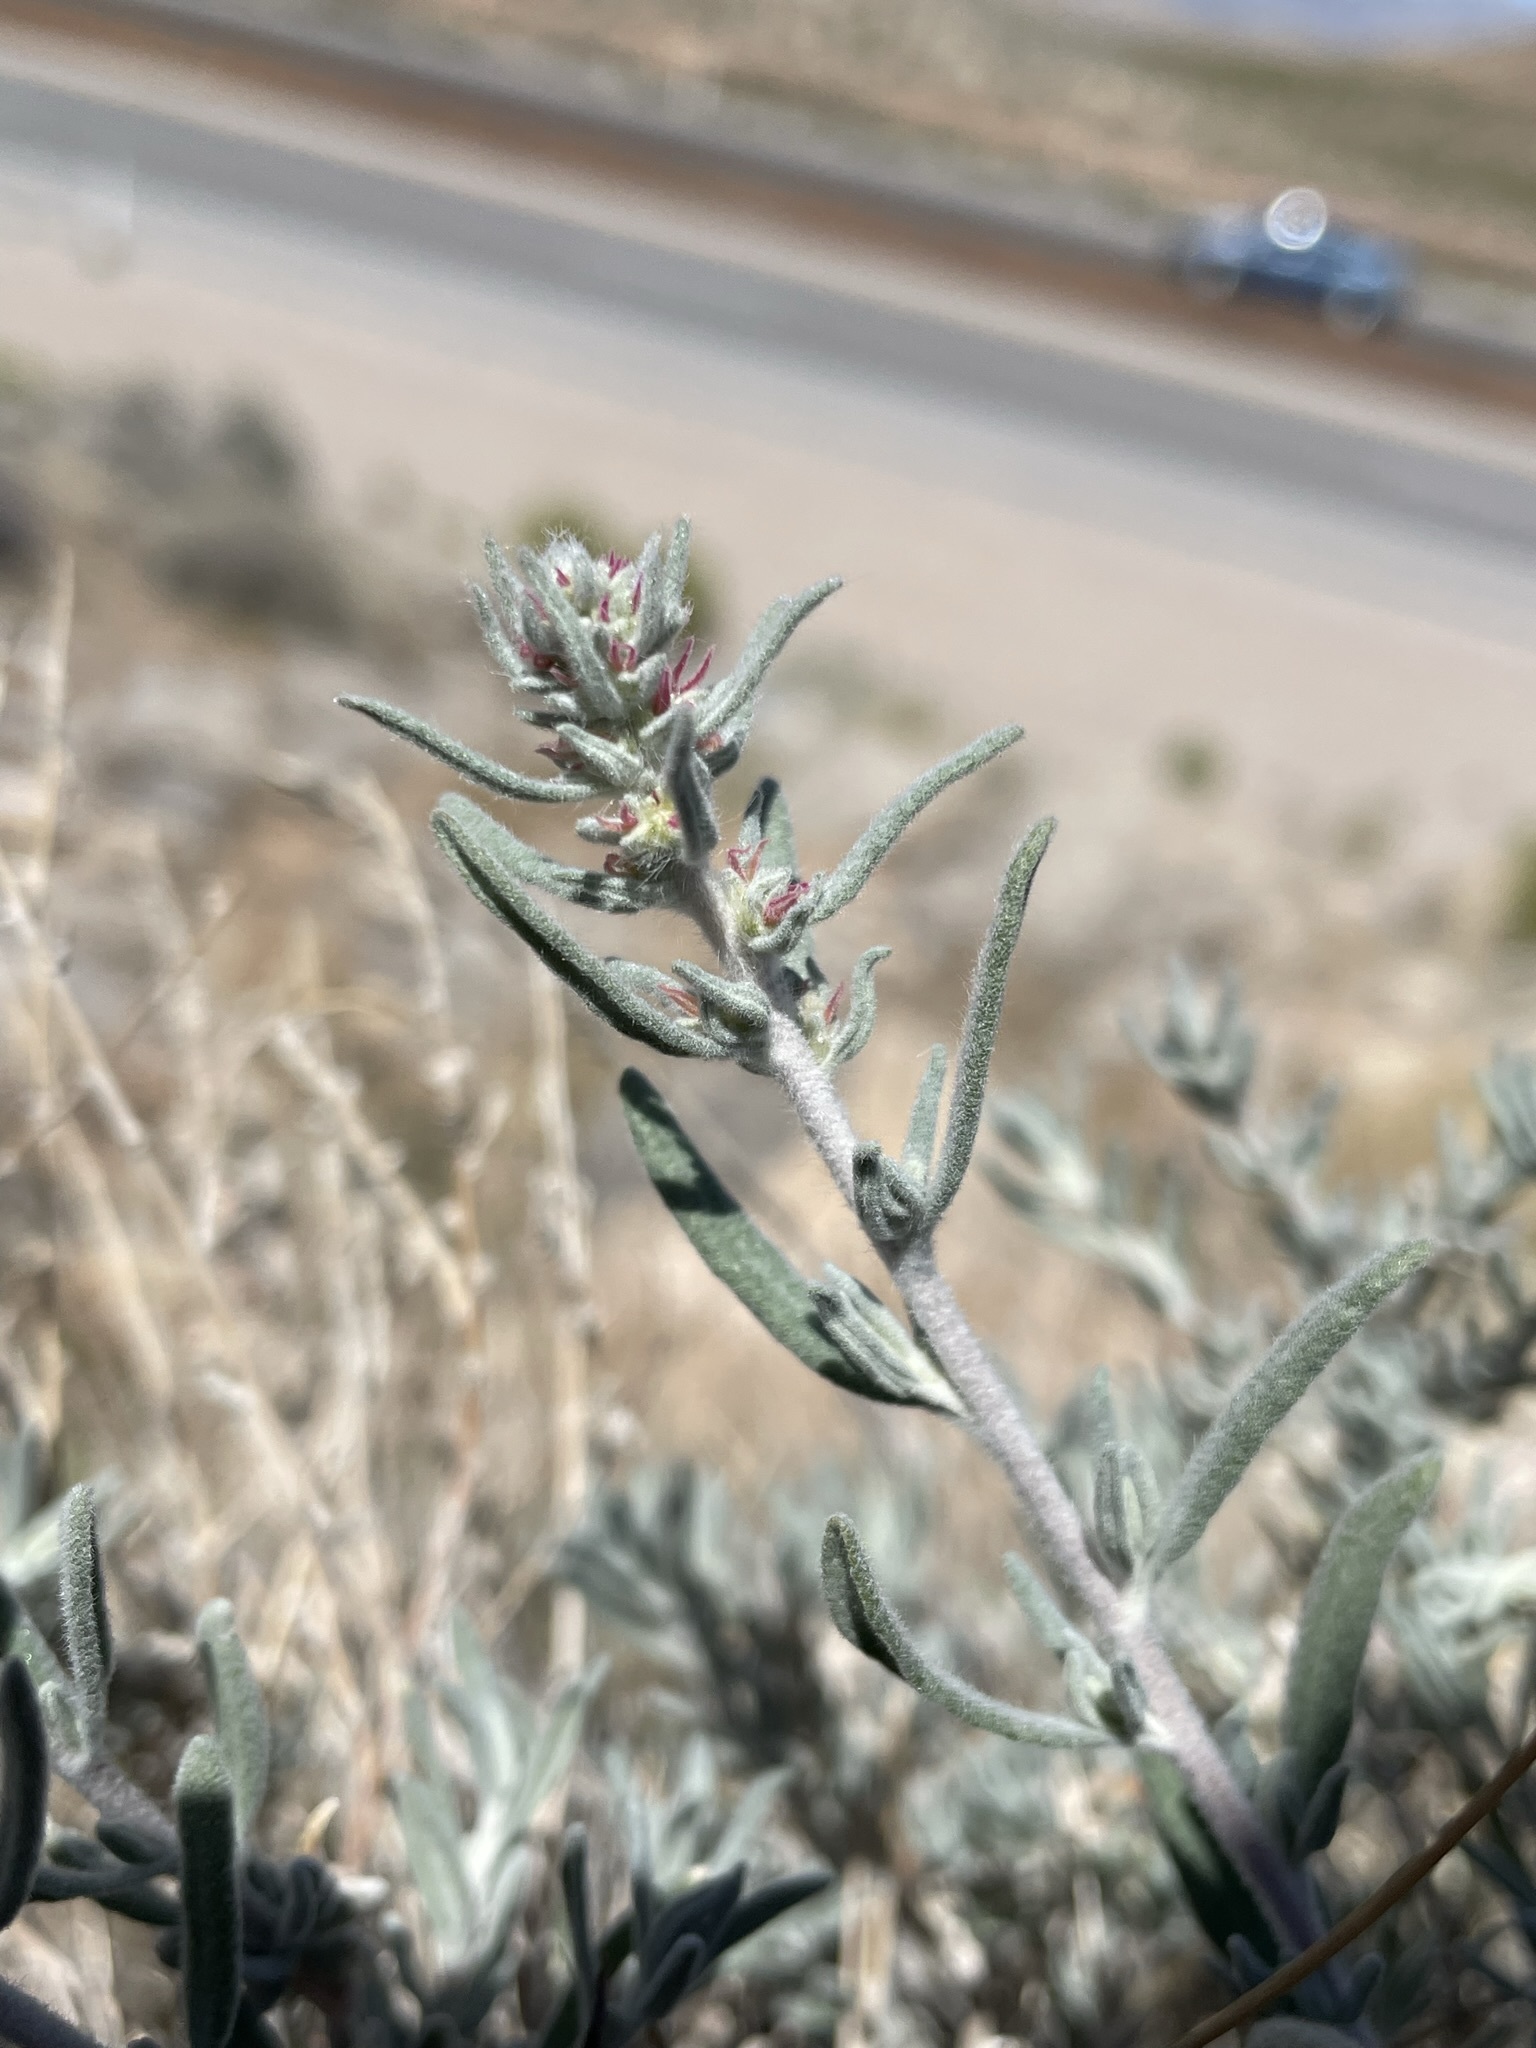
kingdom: Plantae
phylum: Tracheophyta
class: Magnoliopsida
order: Caryophyllales
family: Amaranthaceae
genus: Krascheninnikovia
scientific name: Krascheninnikovia lanata
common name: Winterfat
